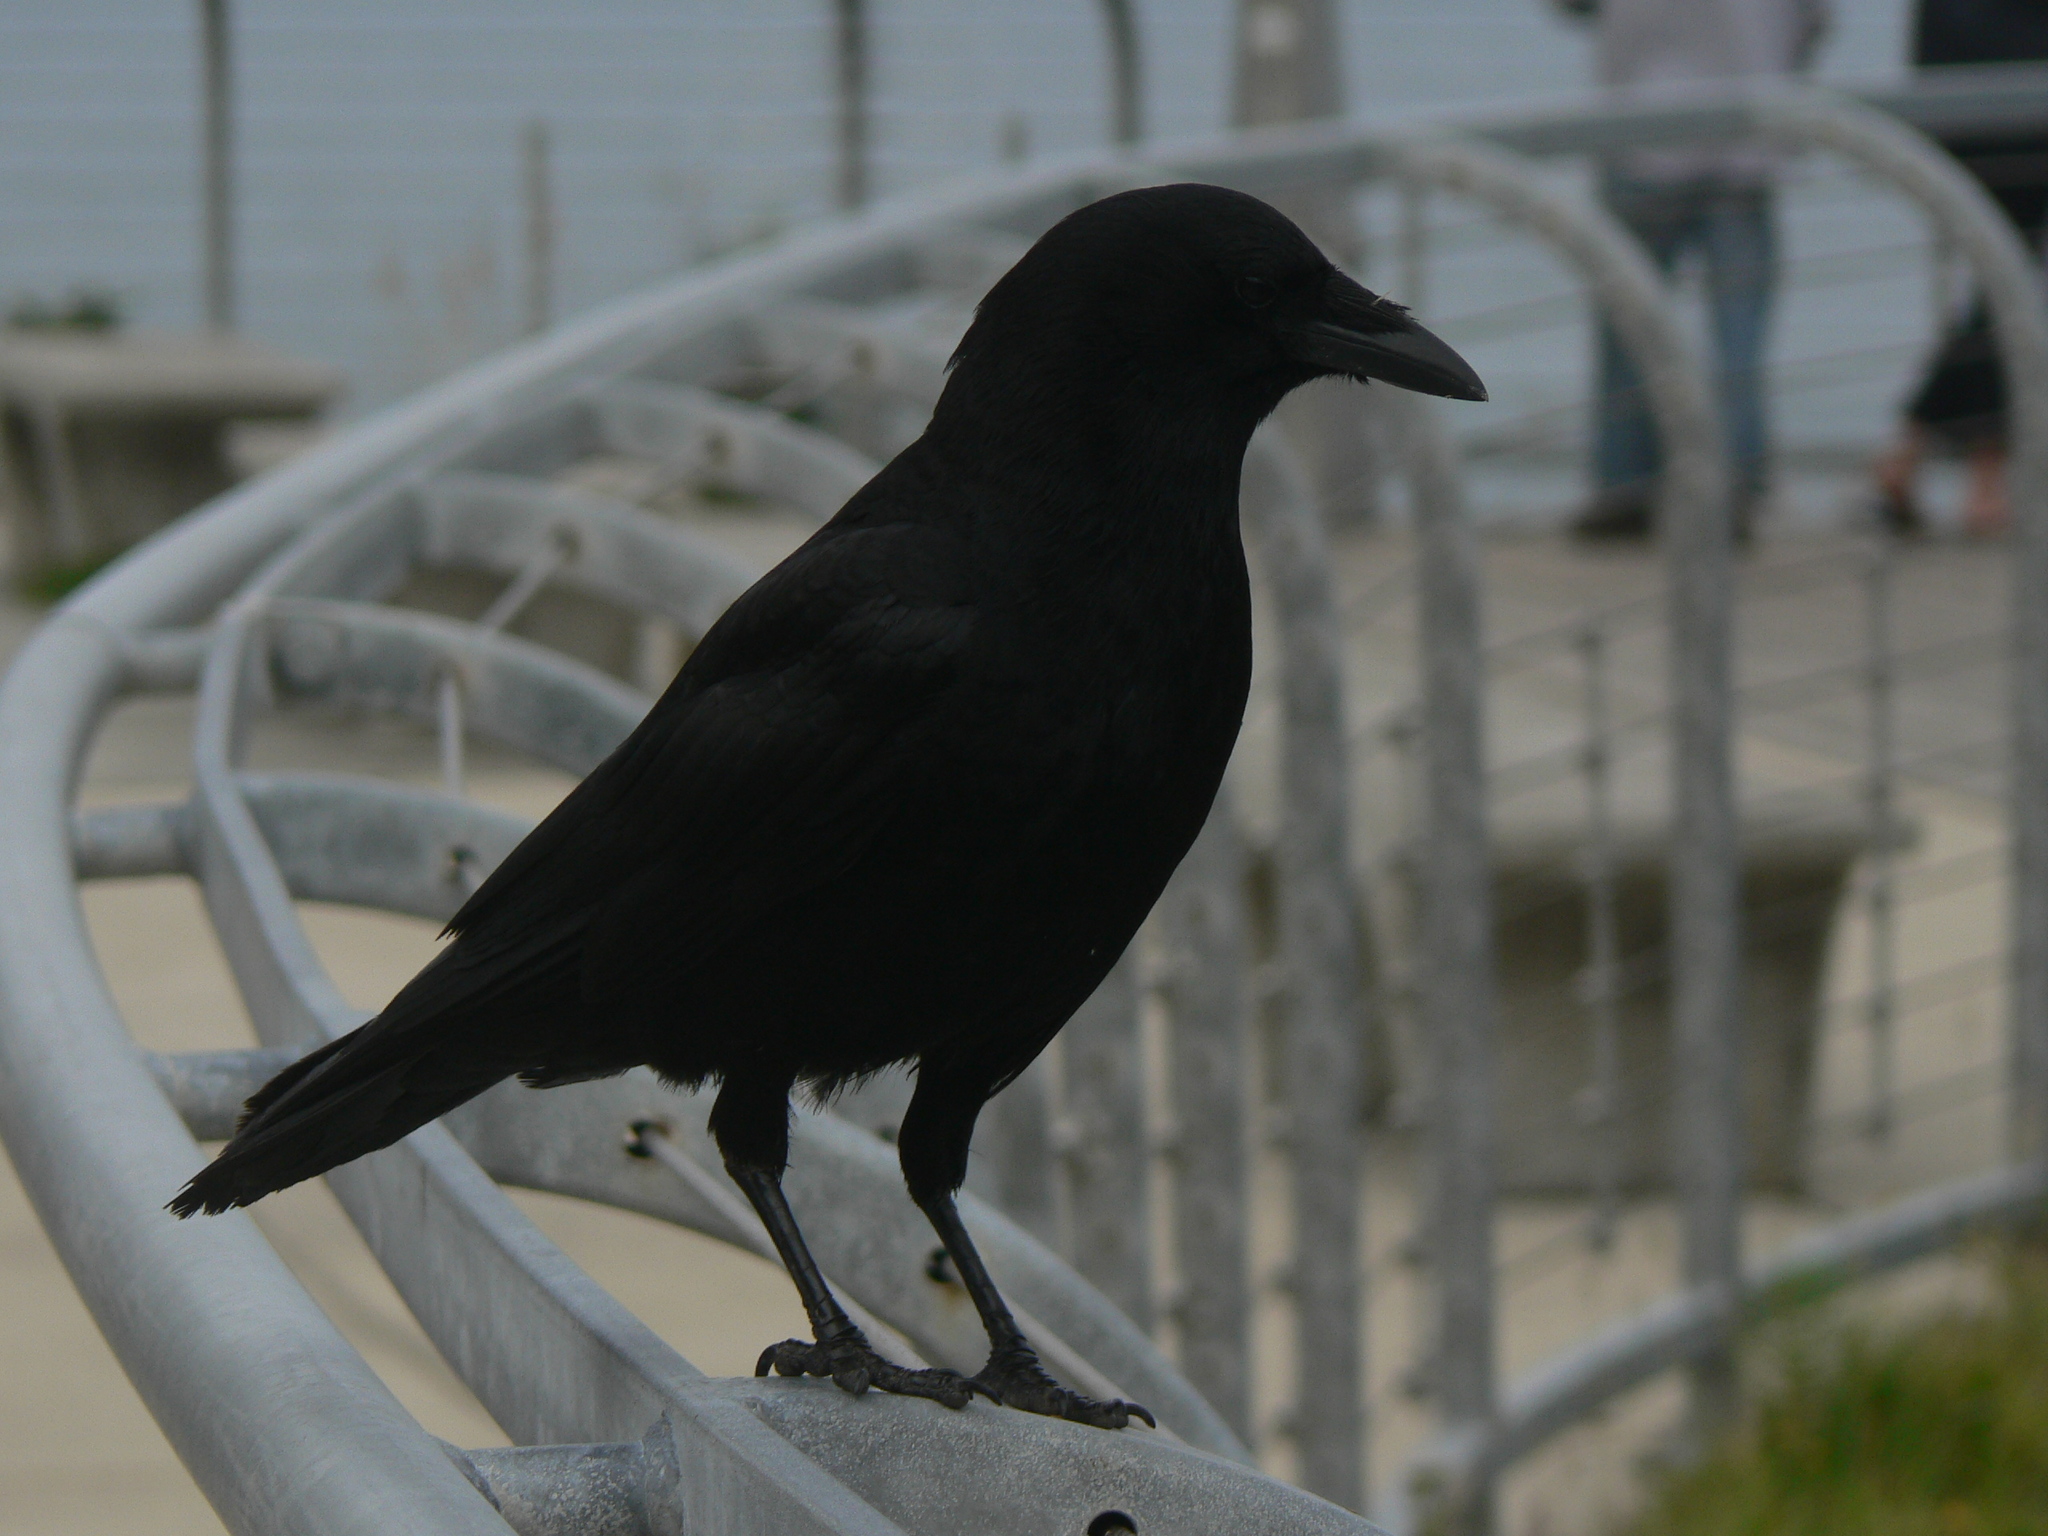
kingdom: Animalia
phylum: Chordata
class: Aves
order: Passeriformes
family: Corvidae
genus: Corvus
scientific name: Corvus brachyrhynchos
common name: American crow
